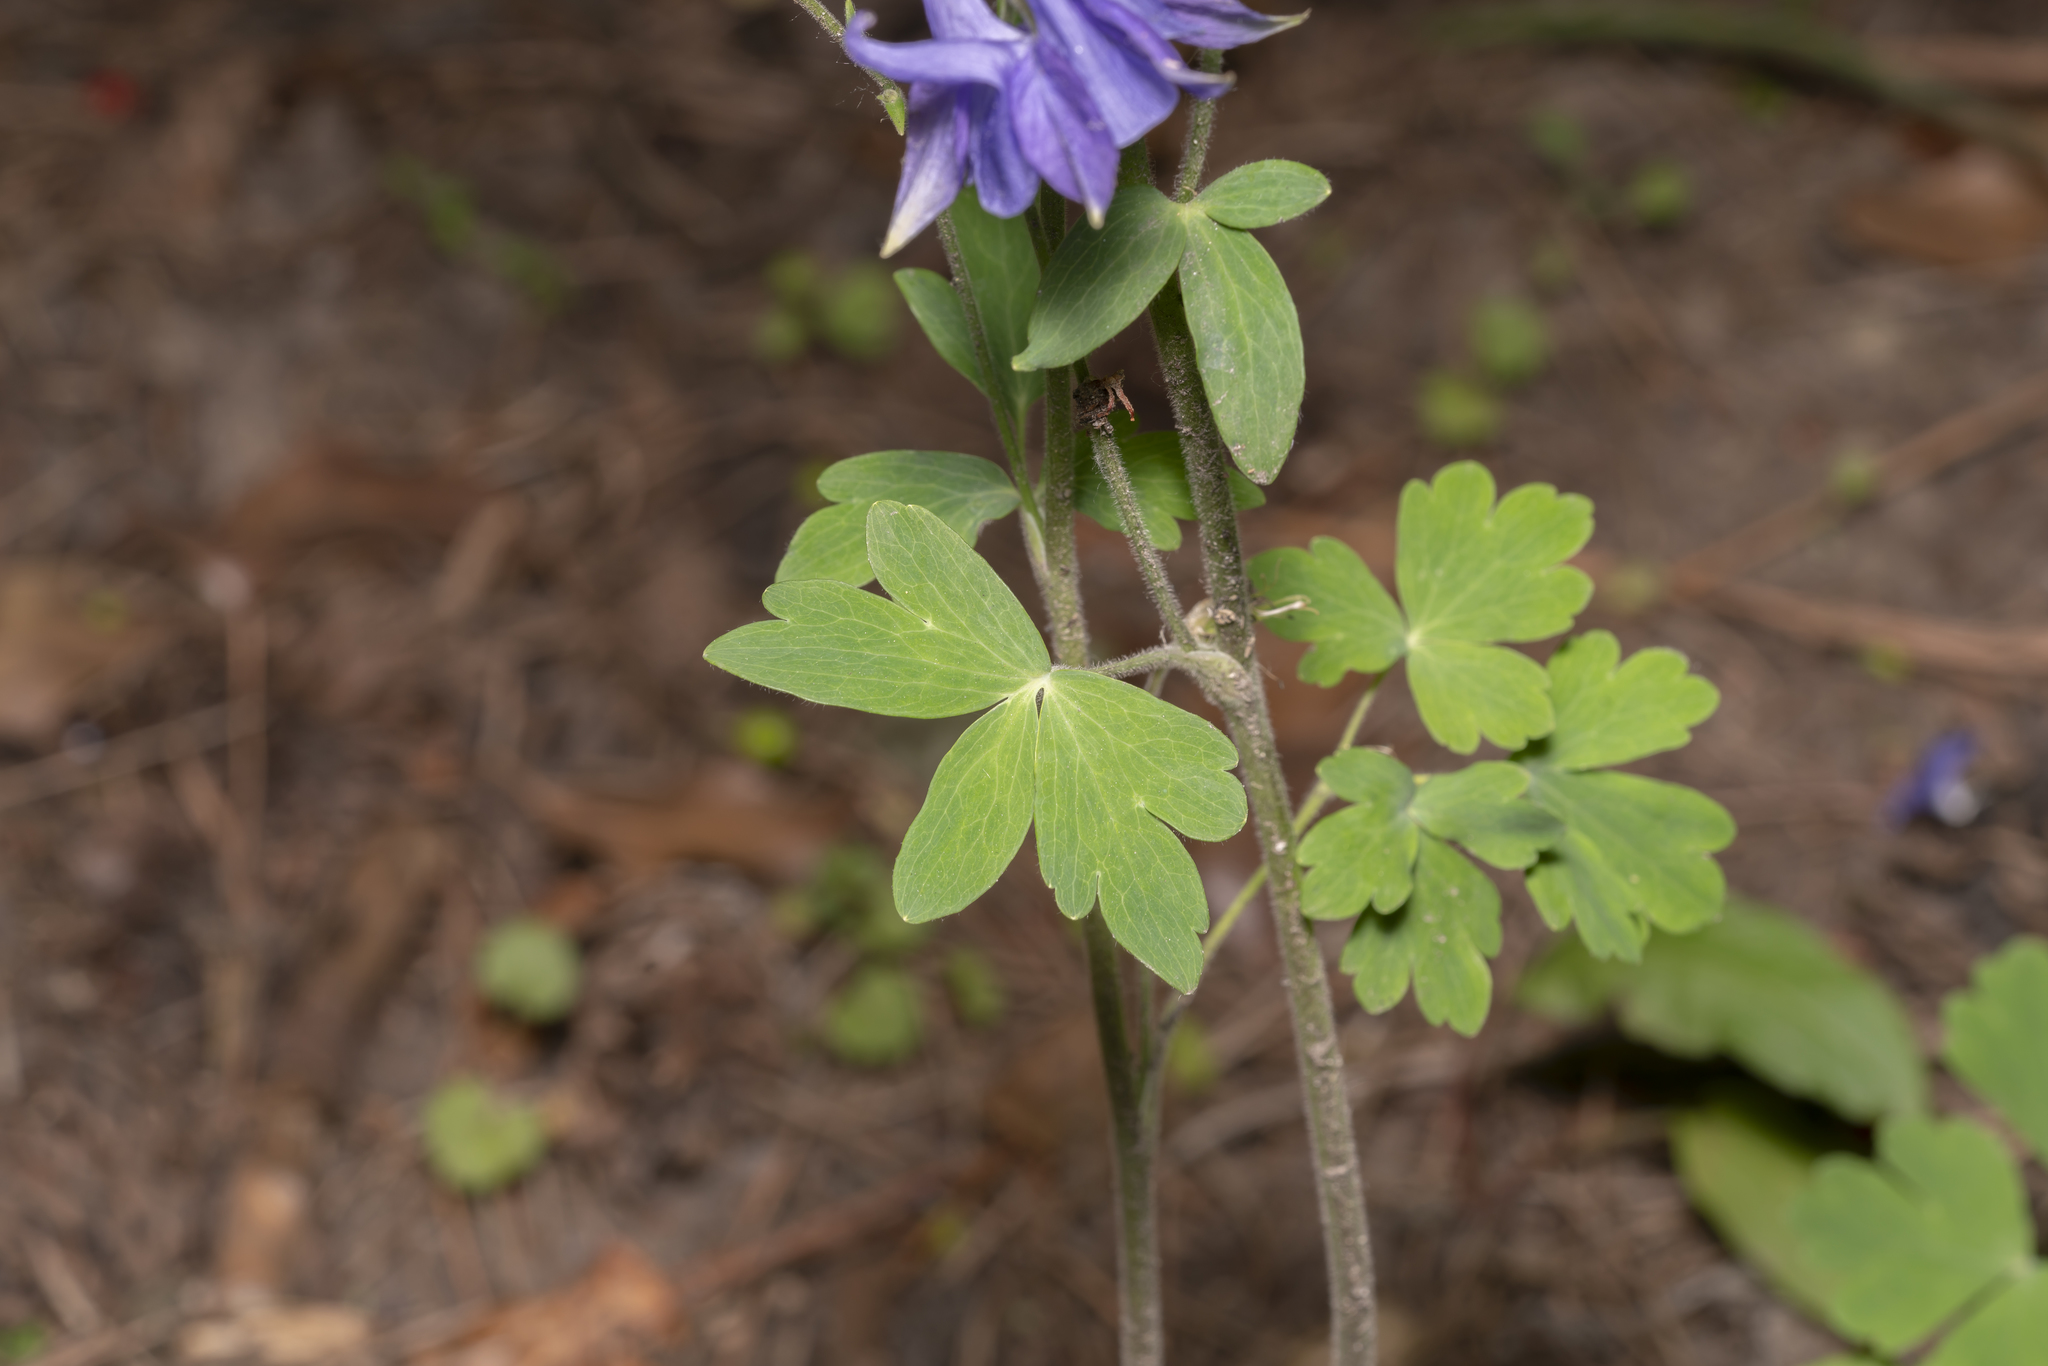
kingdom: Plantae
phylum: Tracheophyta
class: Magnoliopsida
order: Ranunculales
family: Ranunculaceae
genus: Aquilegia
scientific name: Aquilegia vulgaris
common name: Columbine
